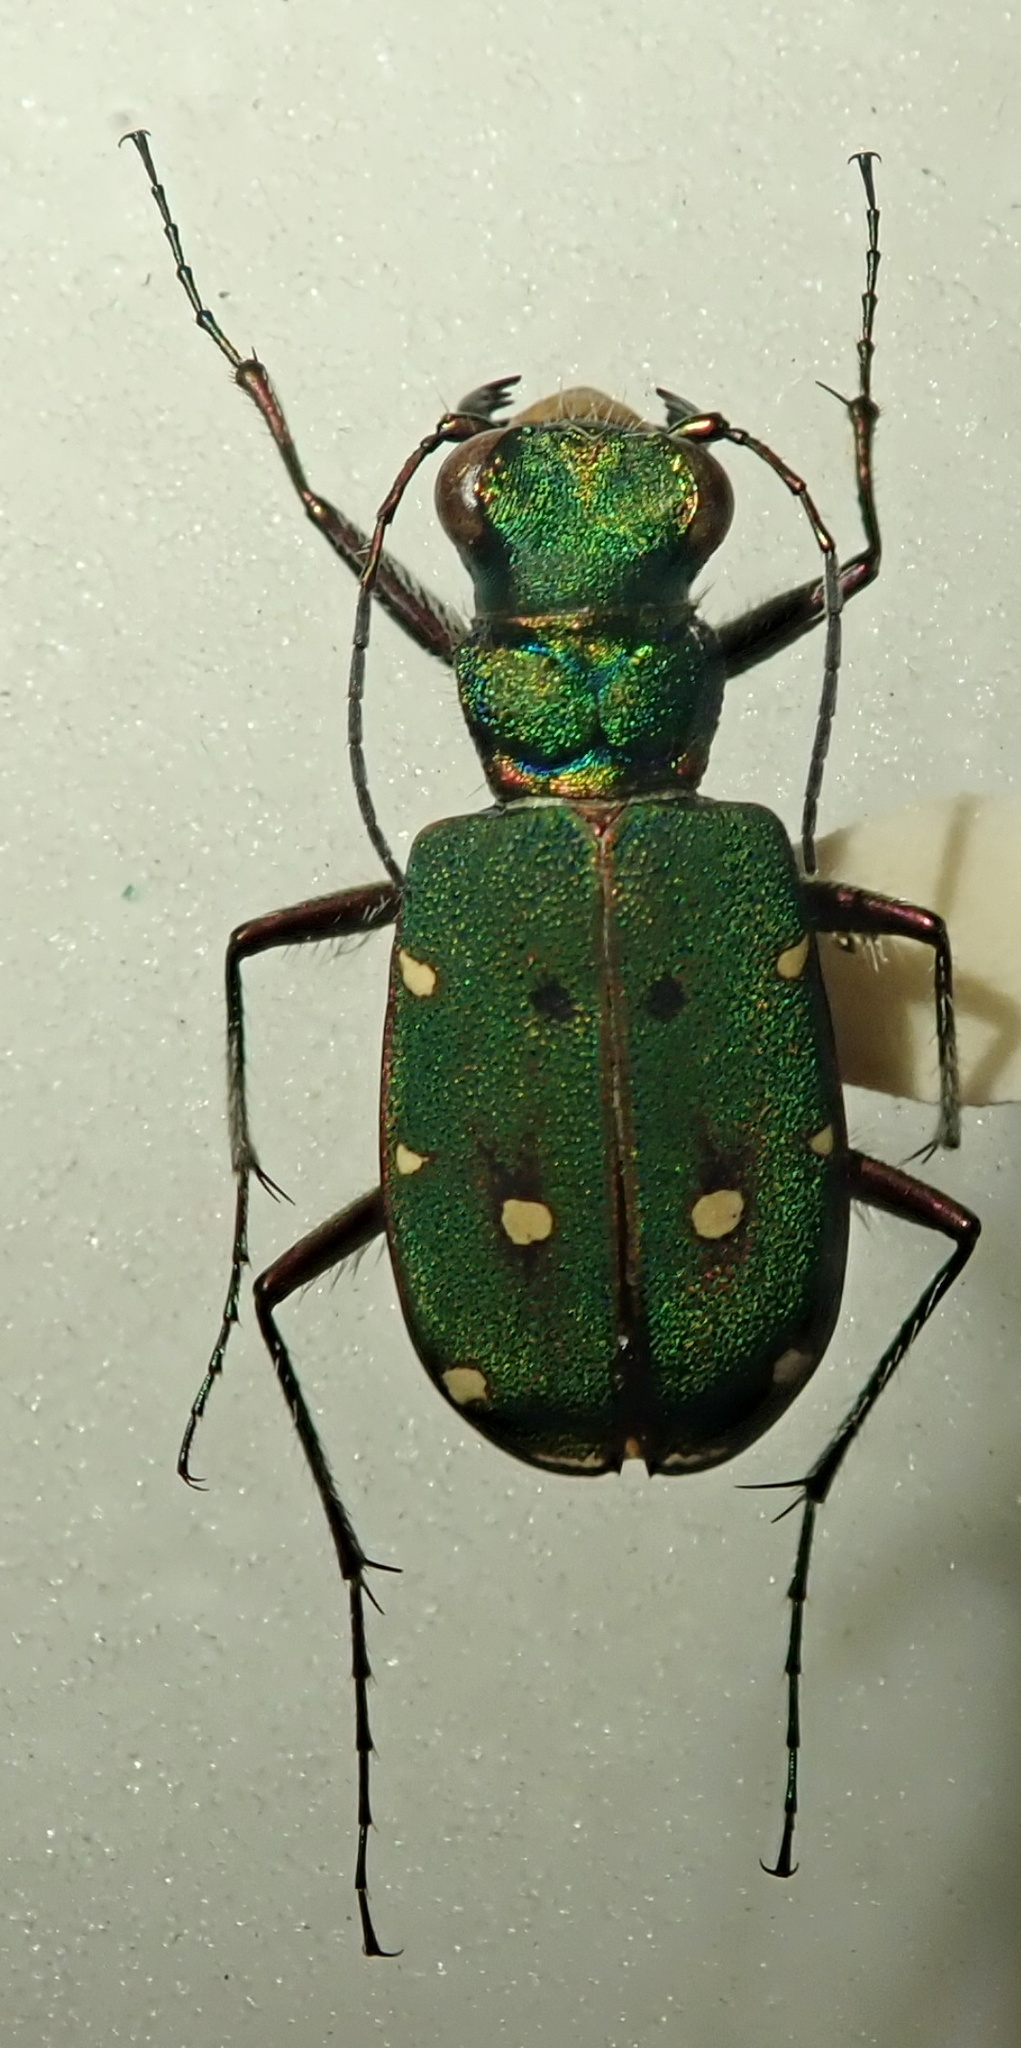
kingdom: Animalia
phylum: Arthropoda
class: Insecta
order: Coleoptera
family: Carabidae
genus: Cicindela
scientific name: Cicindela campestris
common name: Common tiger beetle
